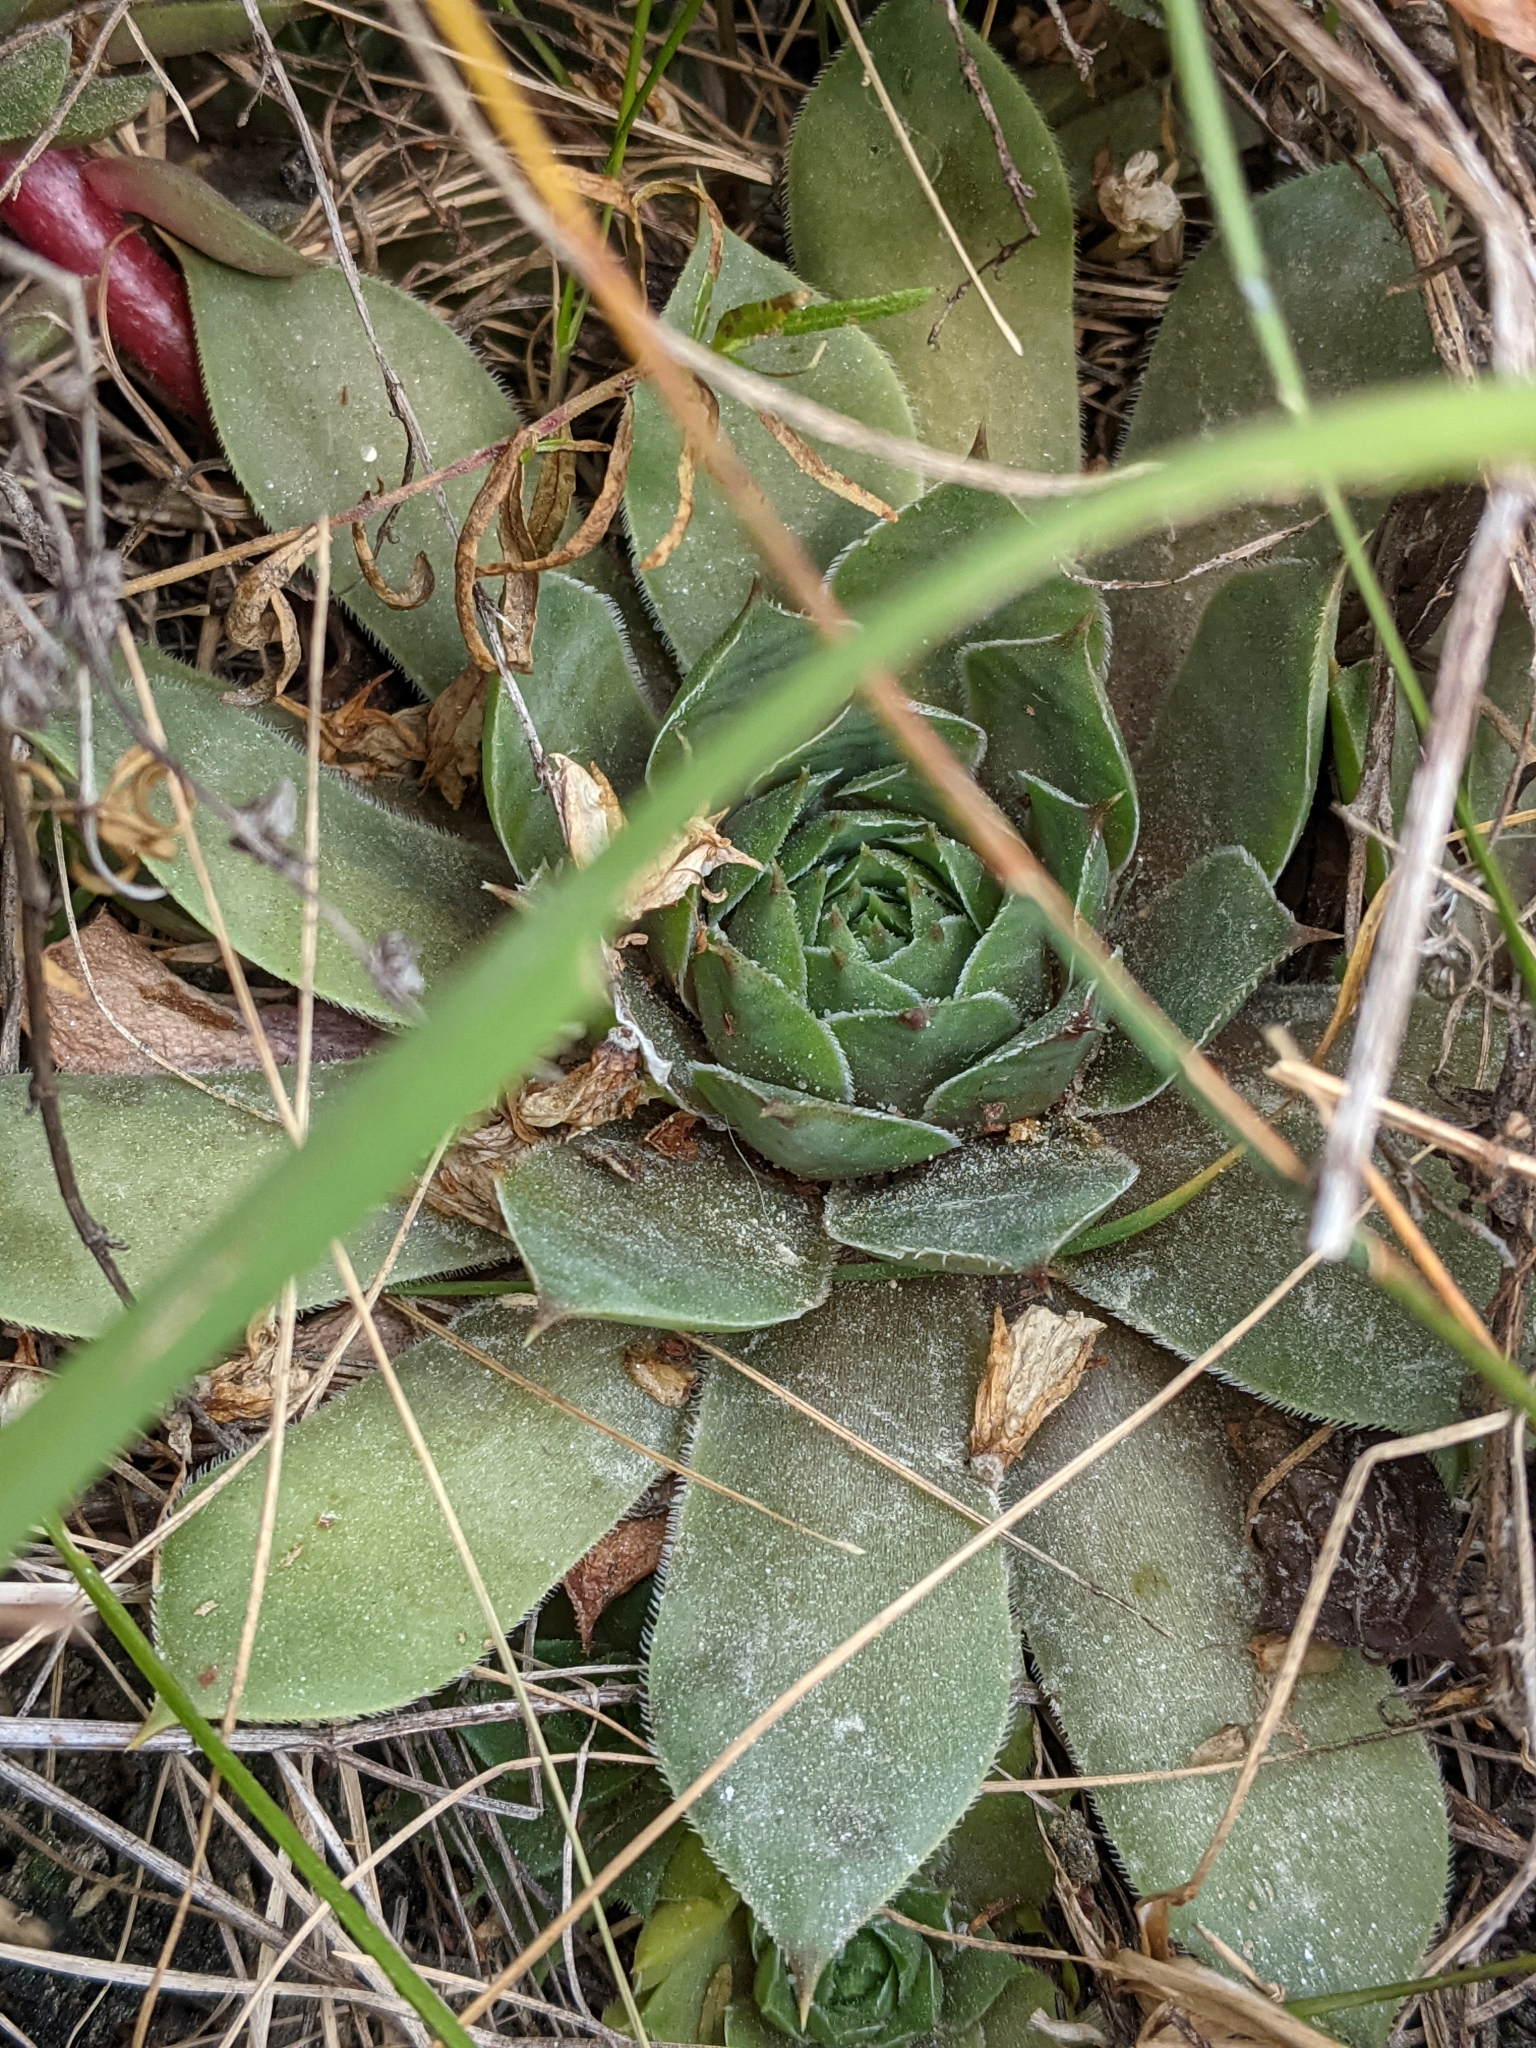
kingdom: Plantae
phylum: Tracheophyta
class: Magnoliopsida
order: Saxifragales
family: Crassulaceae
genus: Sempervivum
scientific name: Sempervivum tectorum
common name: House-leek
